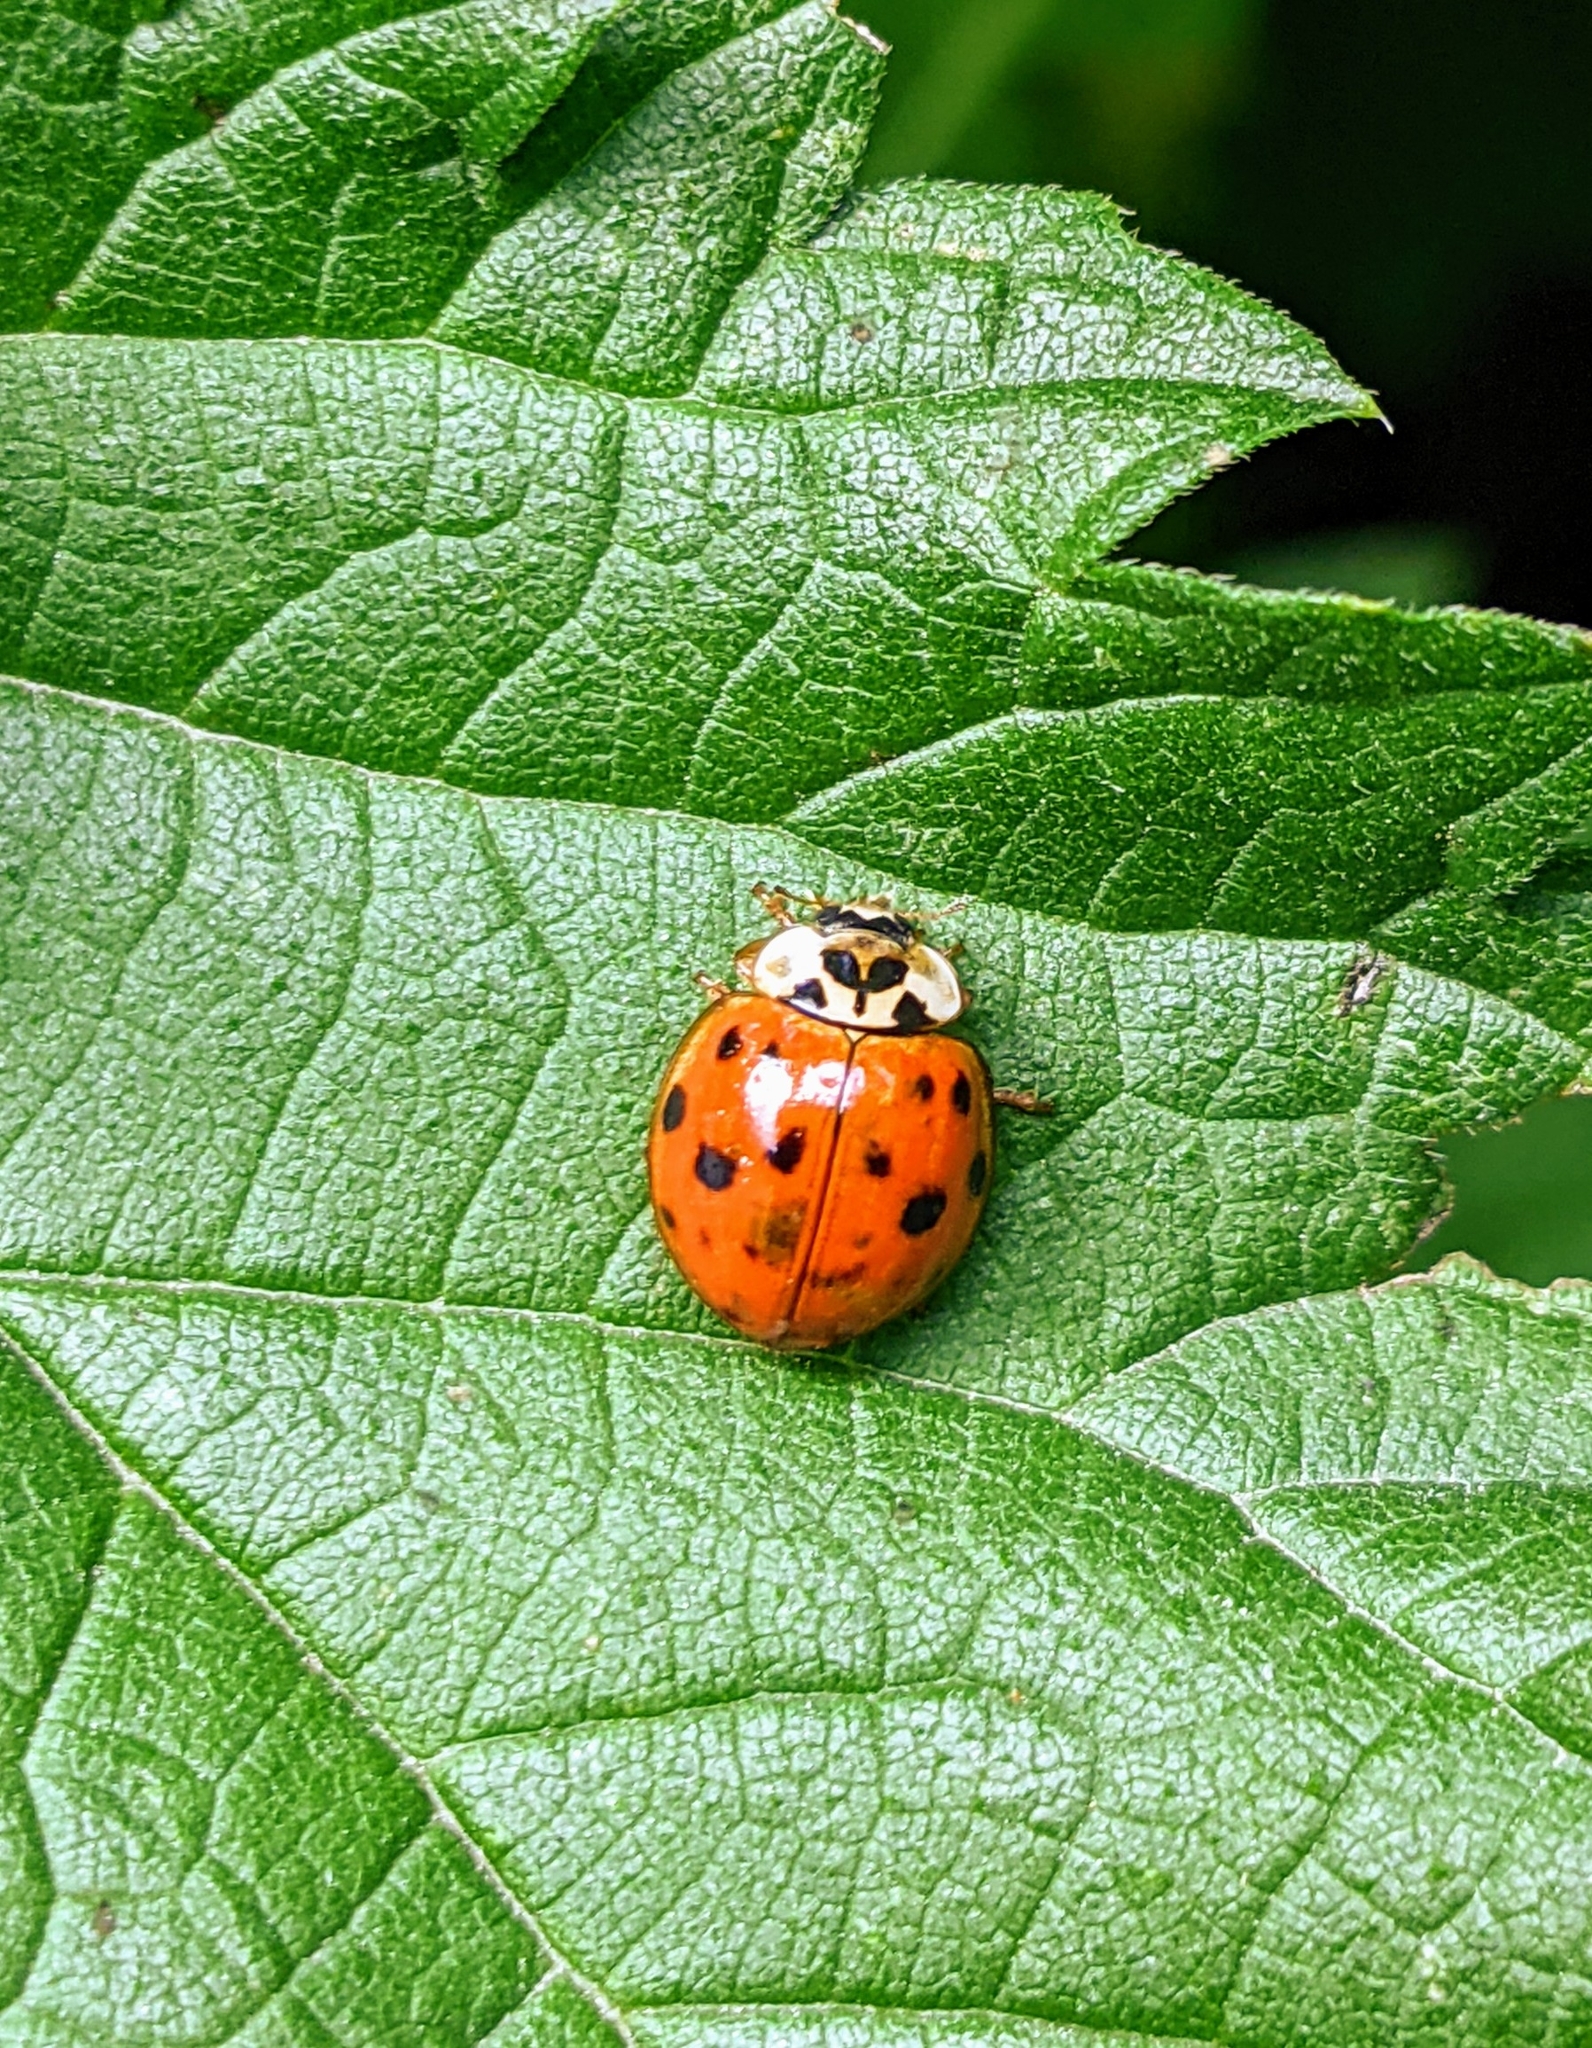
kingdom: Animalia
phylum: Arthropoda
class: Insecta
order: Coleoptera
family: Coccinellidae
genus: Harmonia
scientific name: Harmonia axyridis
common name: Harlequin ladybird
